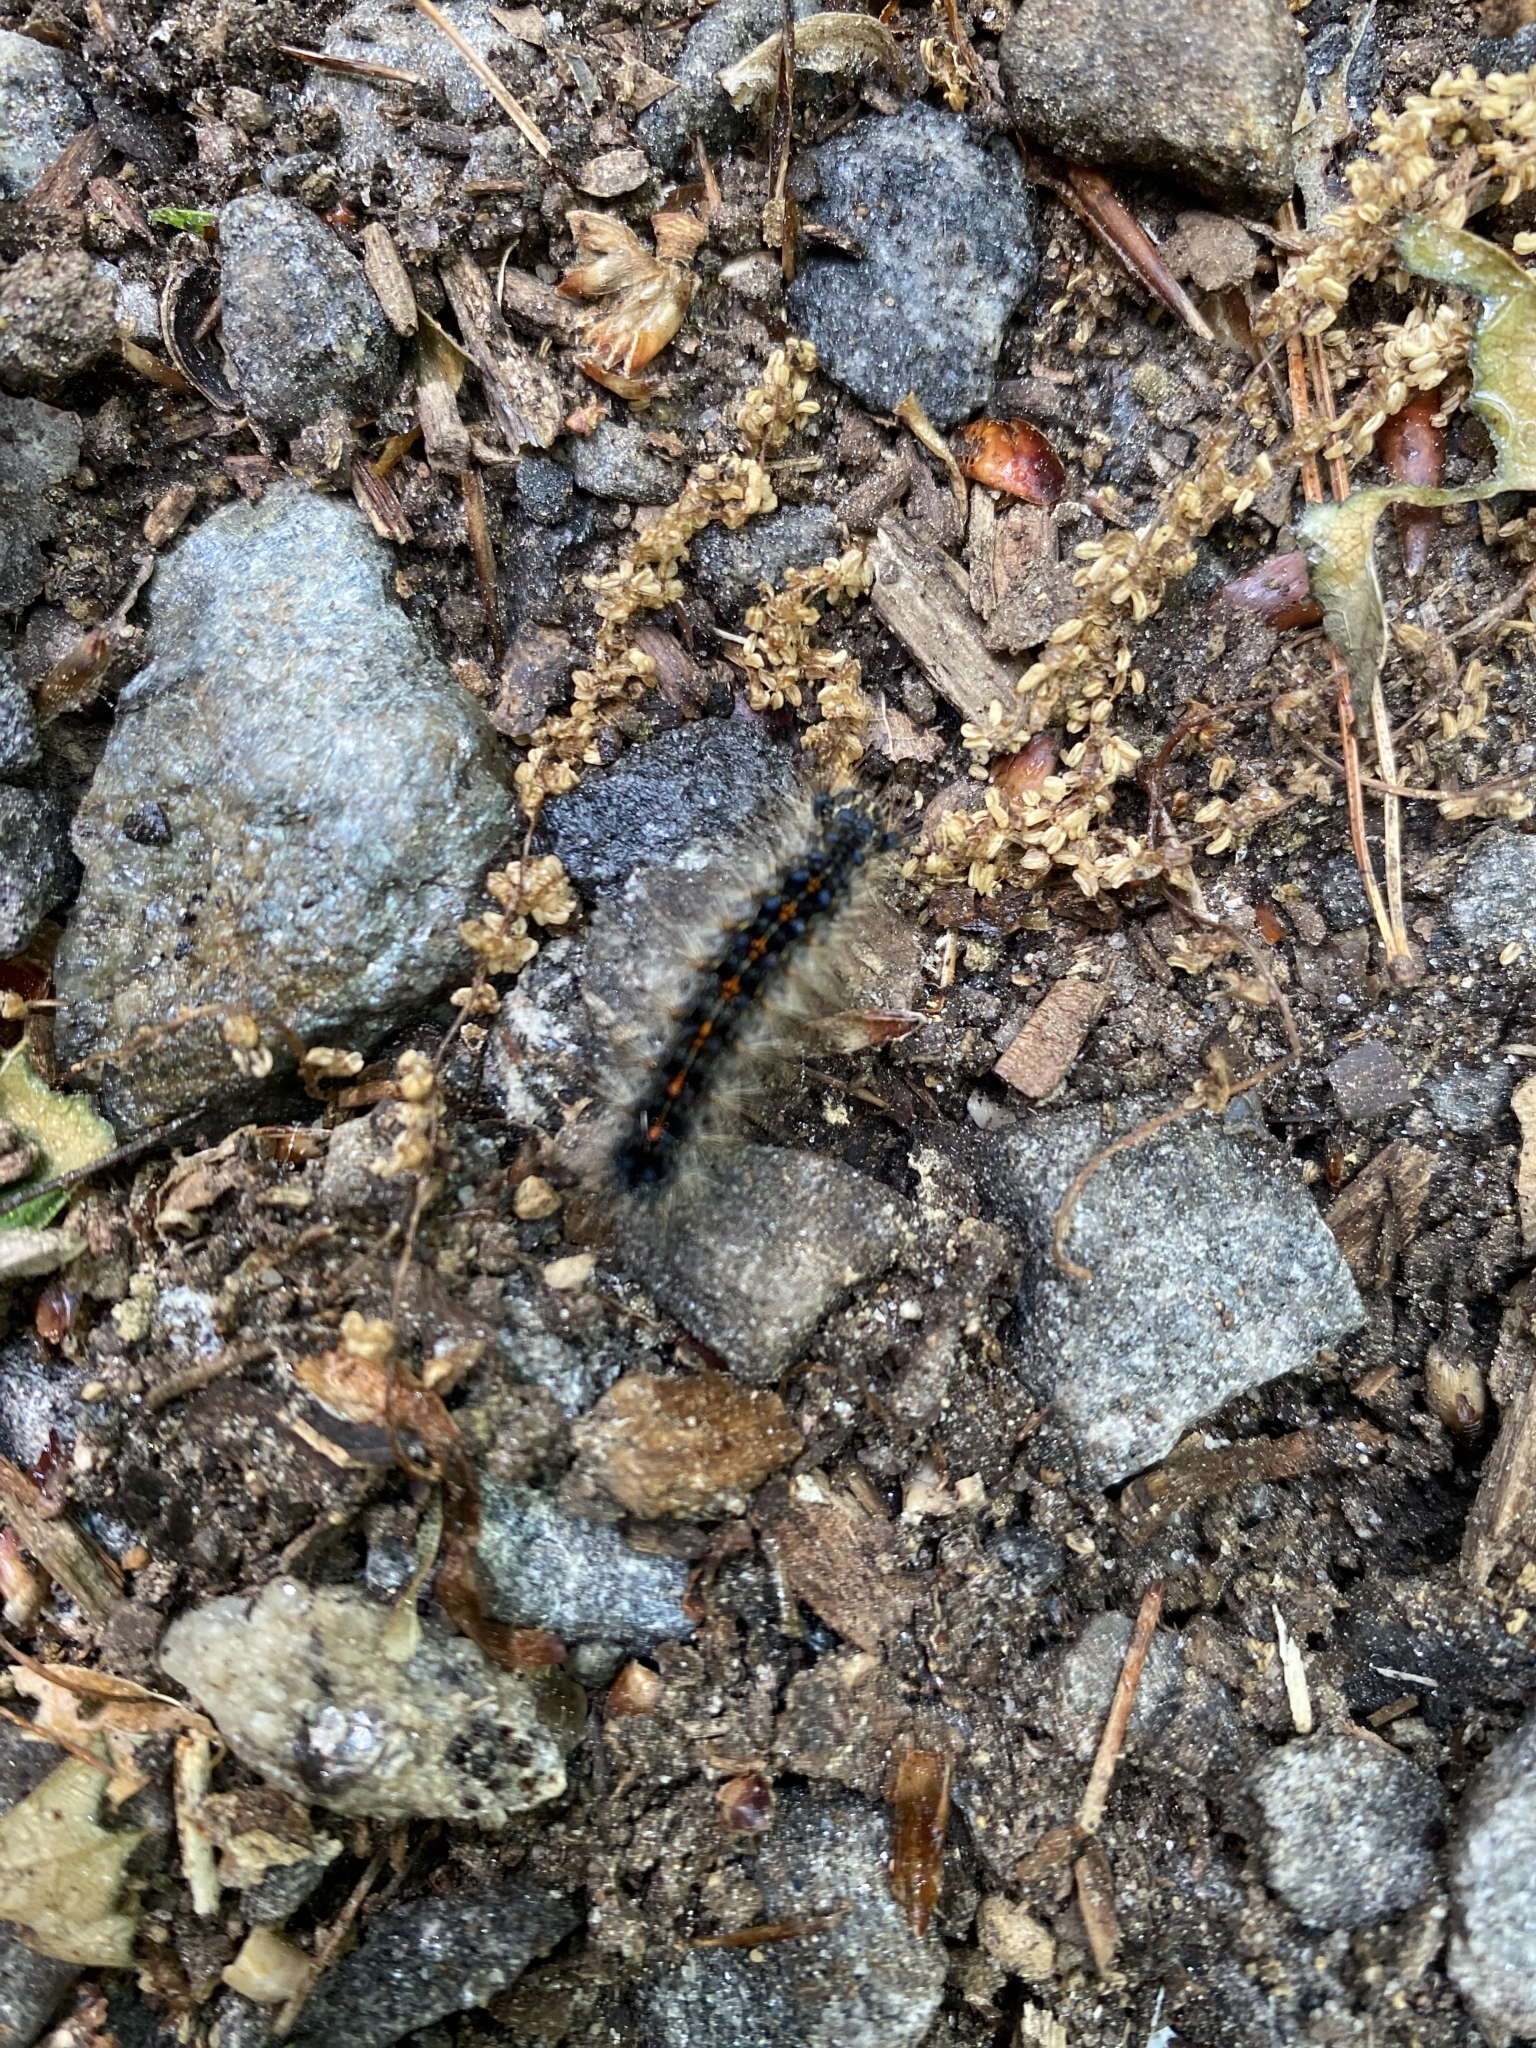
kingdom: Animalia
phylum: Arthropoda
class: Insecta
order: Lepidoptera
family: Erebidae
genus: Lymantria
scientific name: Lymantria dispar
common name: Gypsy moth
